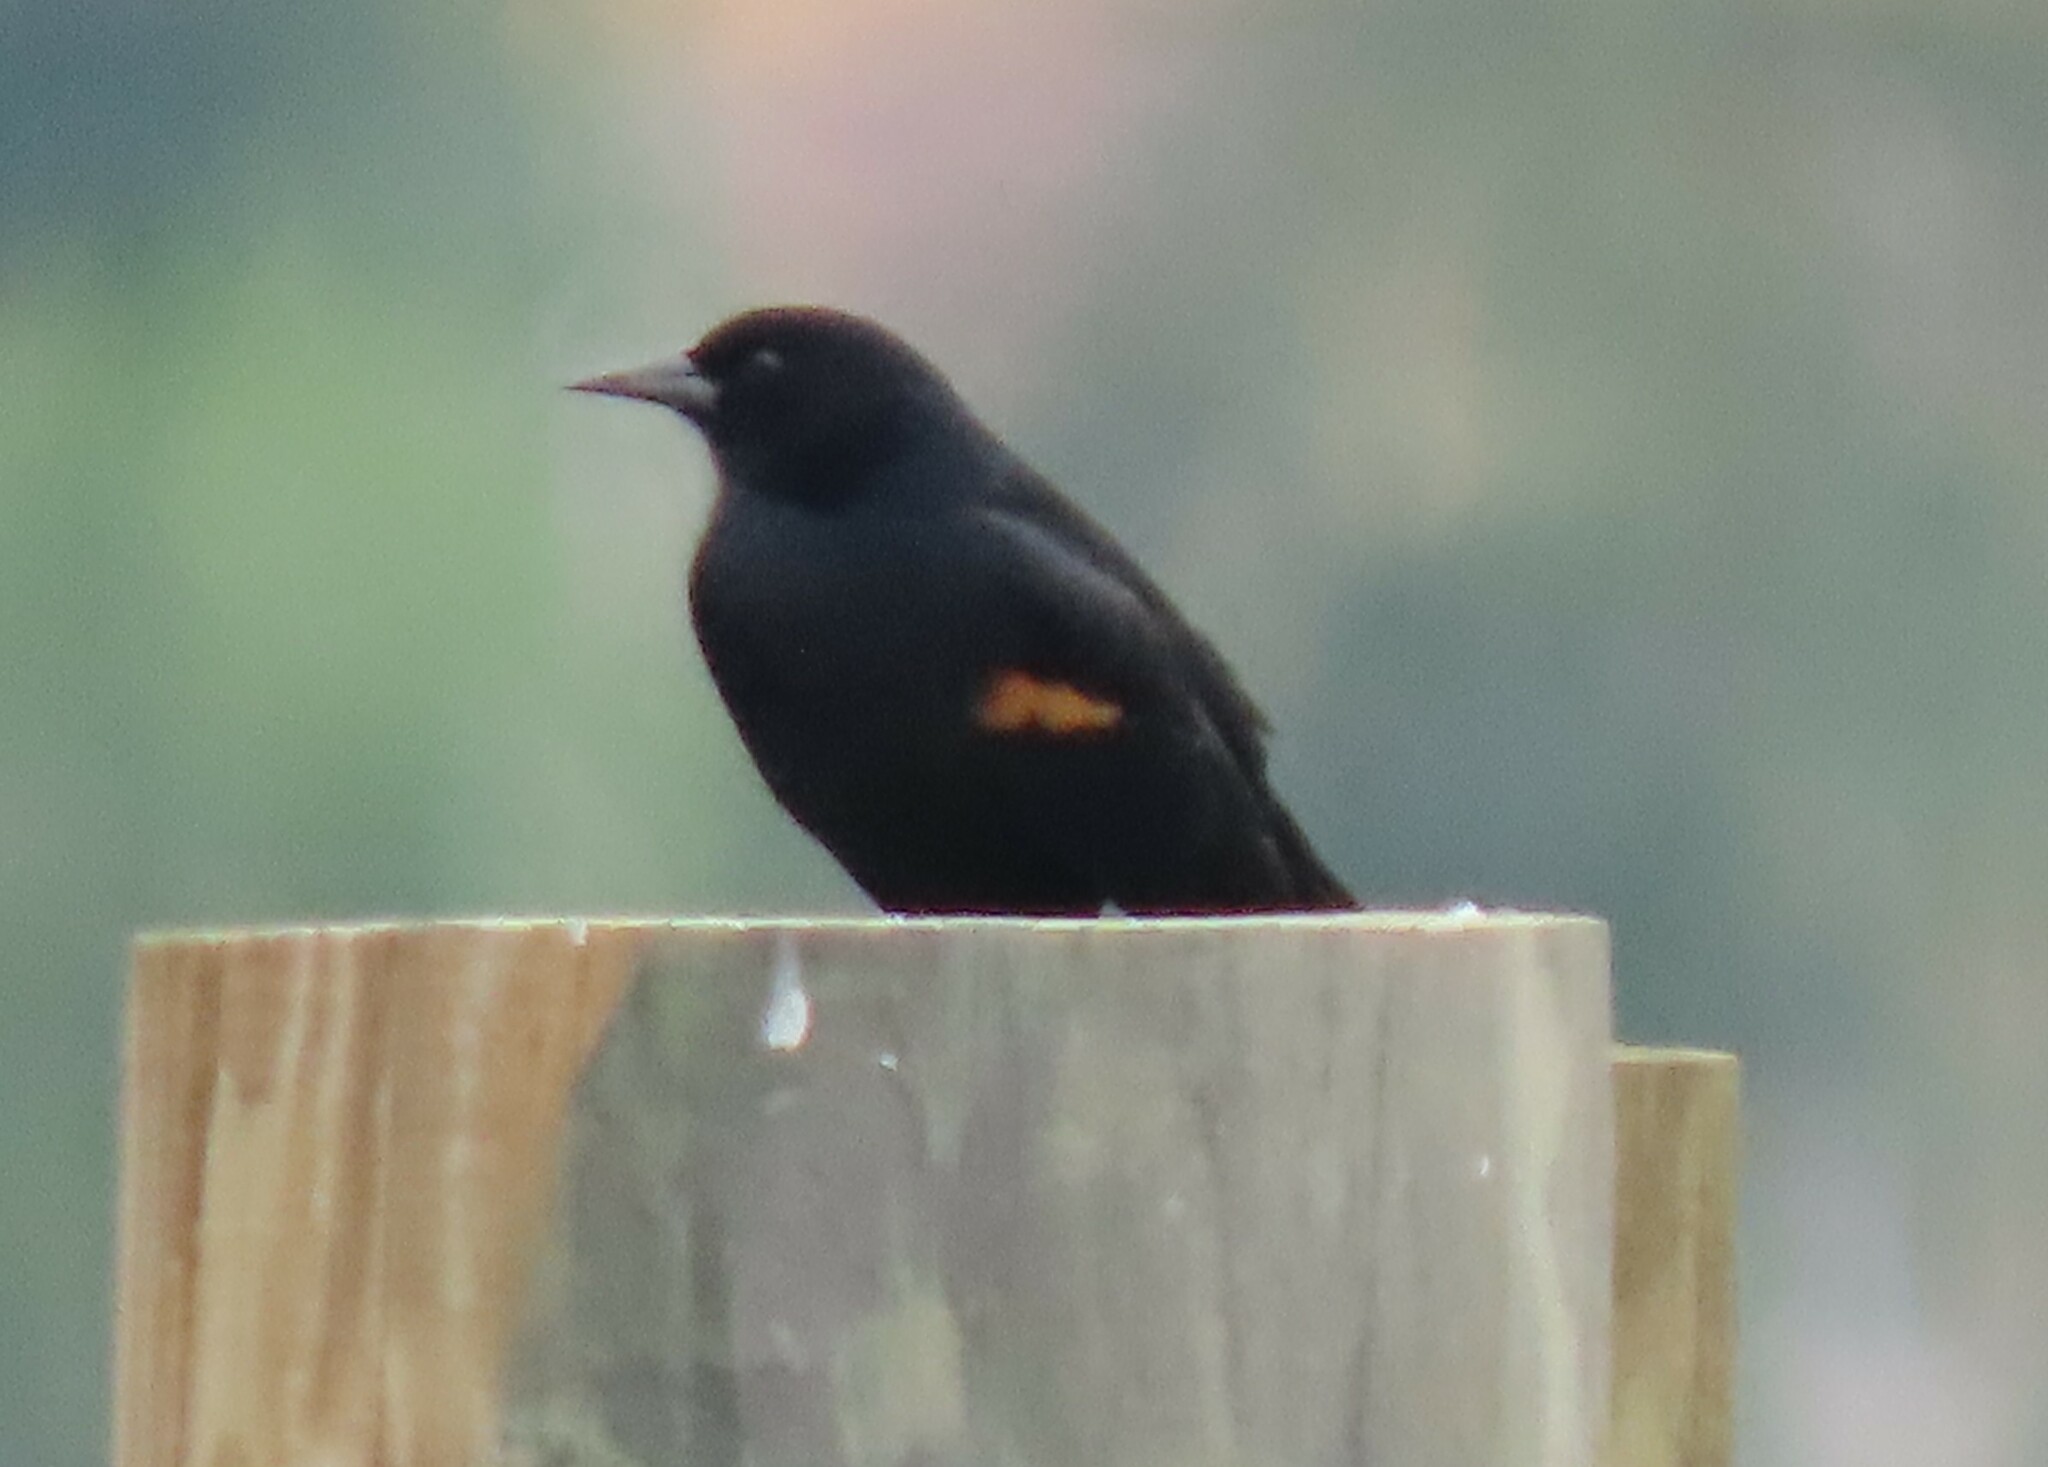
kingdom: Animalia
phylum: Chordata
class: Aves
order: Passeriformes
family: Icteridae
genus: Agelaius
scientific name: Agelaius phoeniceus
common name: Red-winged blackbird
